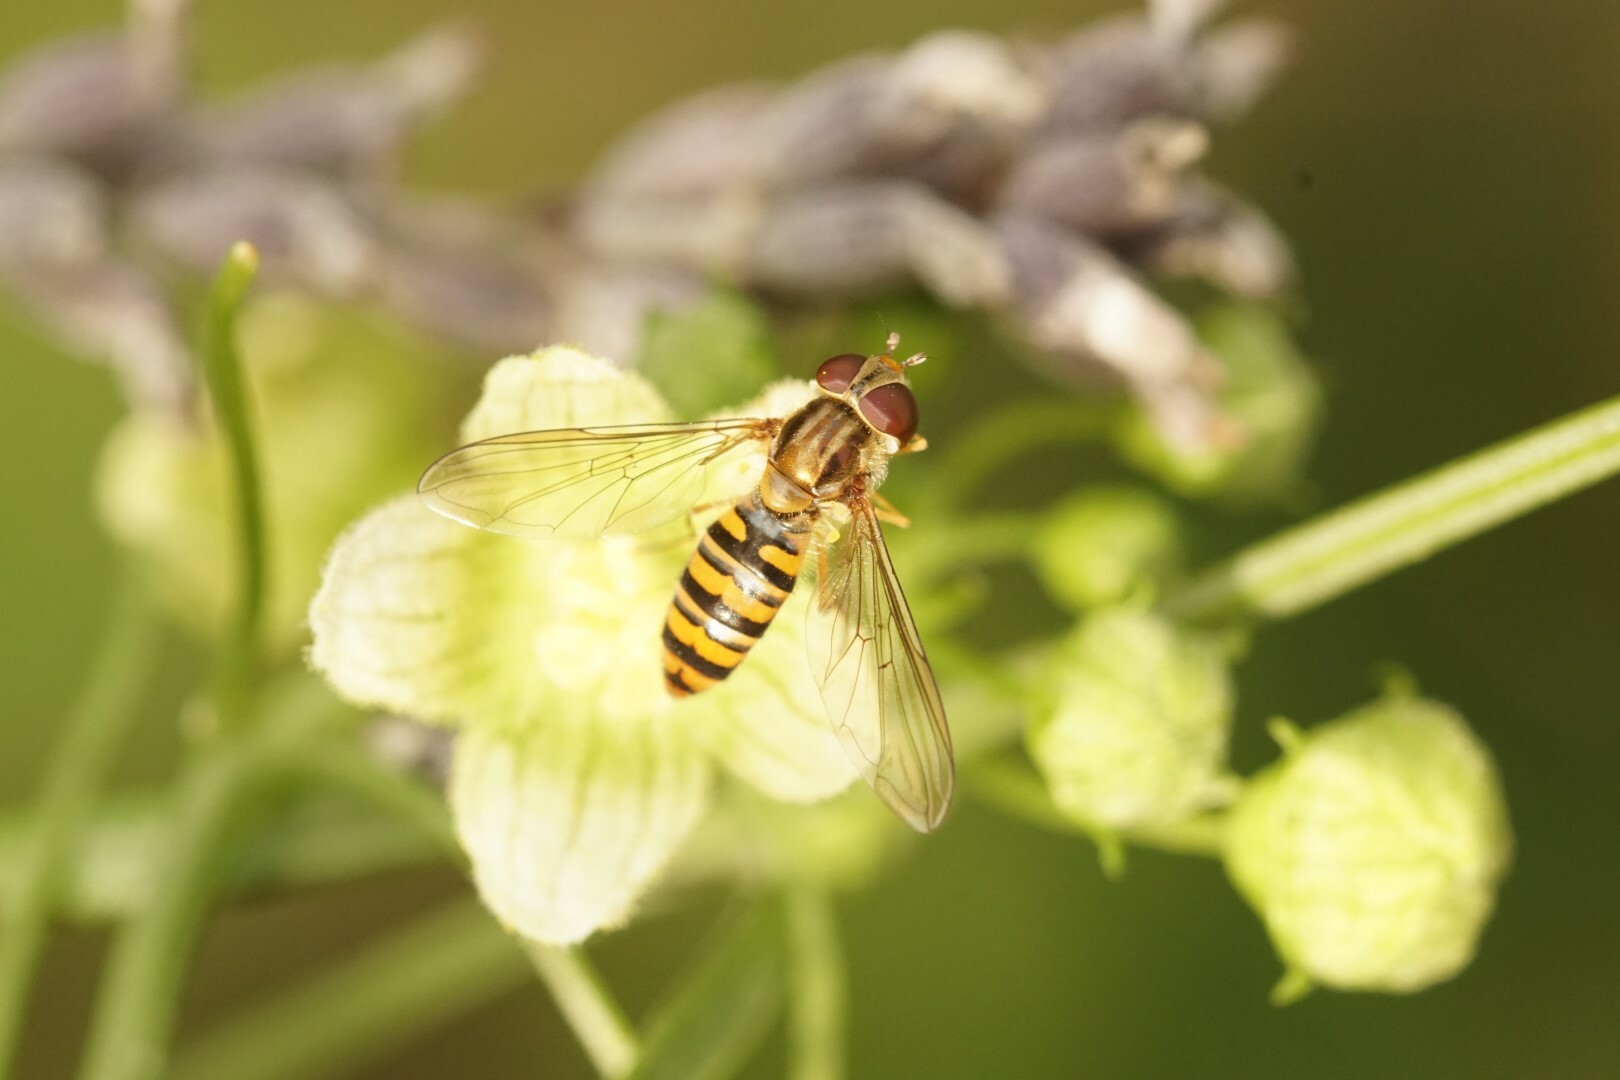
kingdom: Animalia
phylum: Arthropoda
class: Insecta
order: Diptera
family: Syrphidae
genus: Episyrphus
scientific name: Episyrphus balteatus
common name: Marmalade hoverfly
